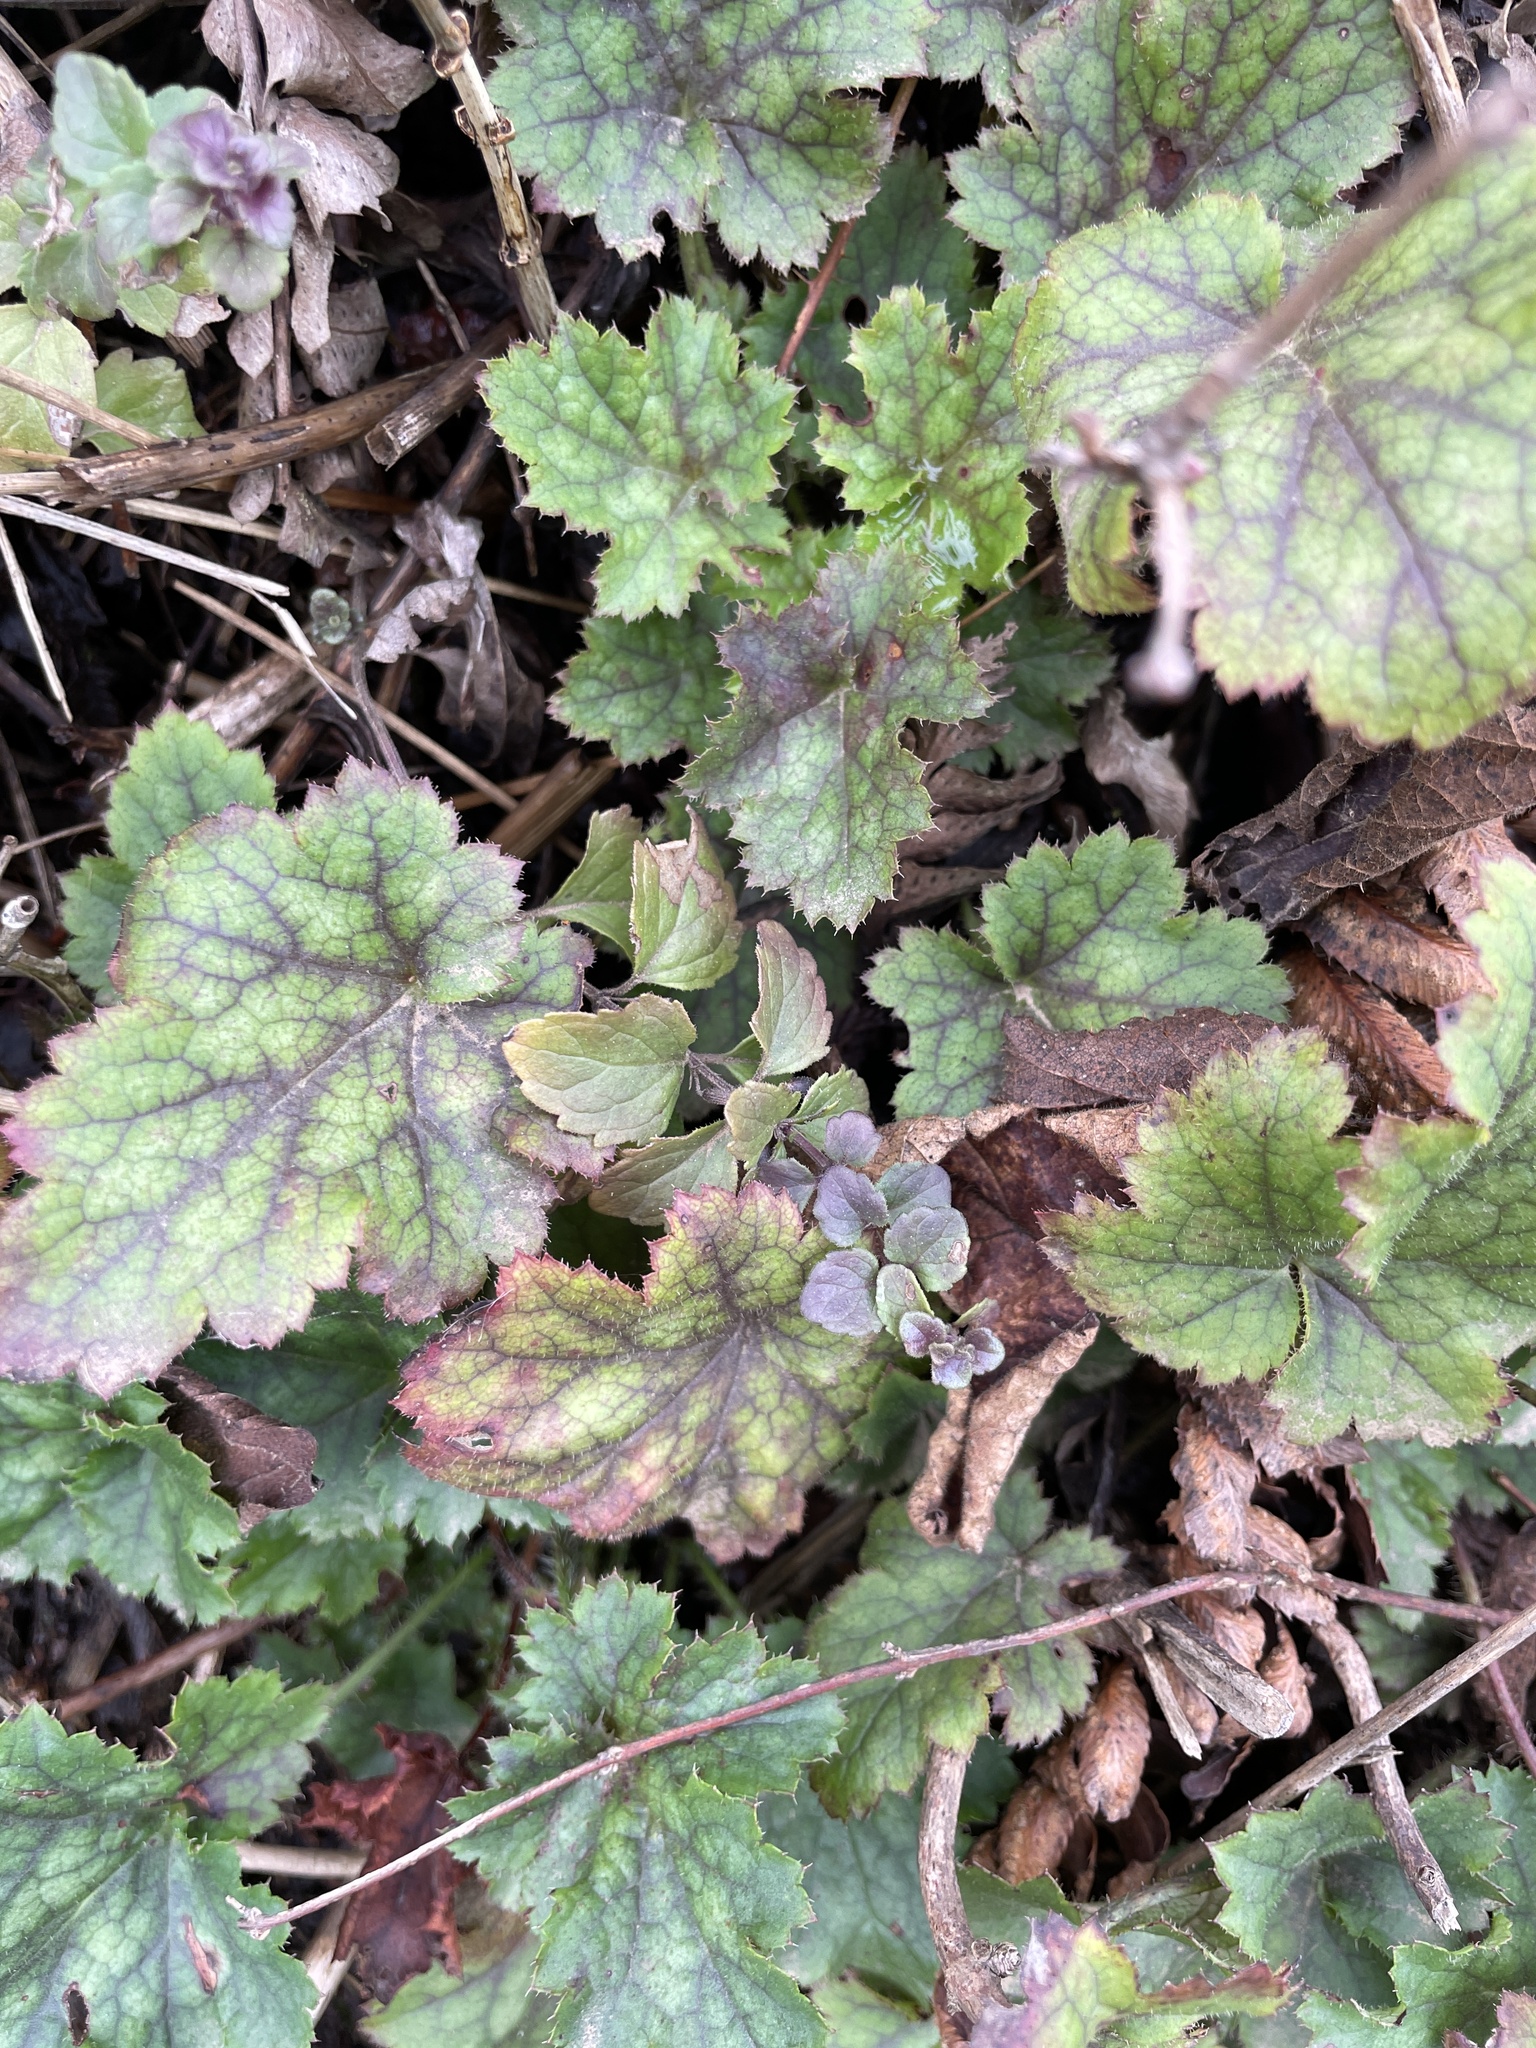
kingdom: Plantae
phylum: Tracheophyta
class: Magnoliopsida
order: Saxifragales
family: Saxifragaceae
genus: Heuchera
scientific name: Heuchera micrantha
